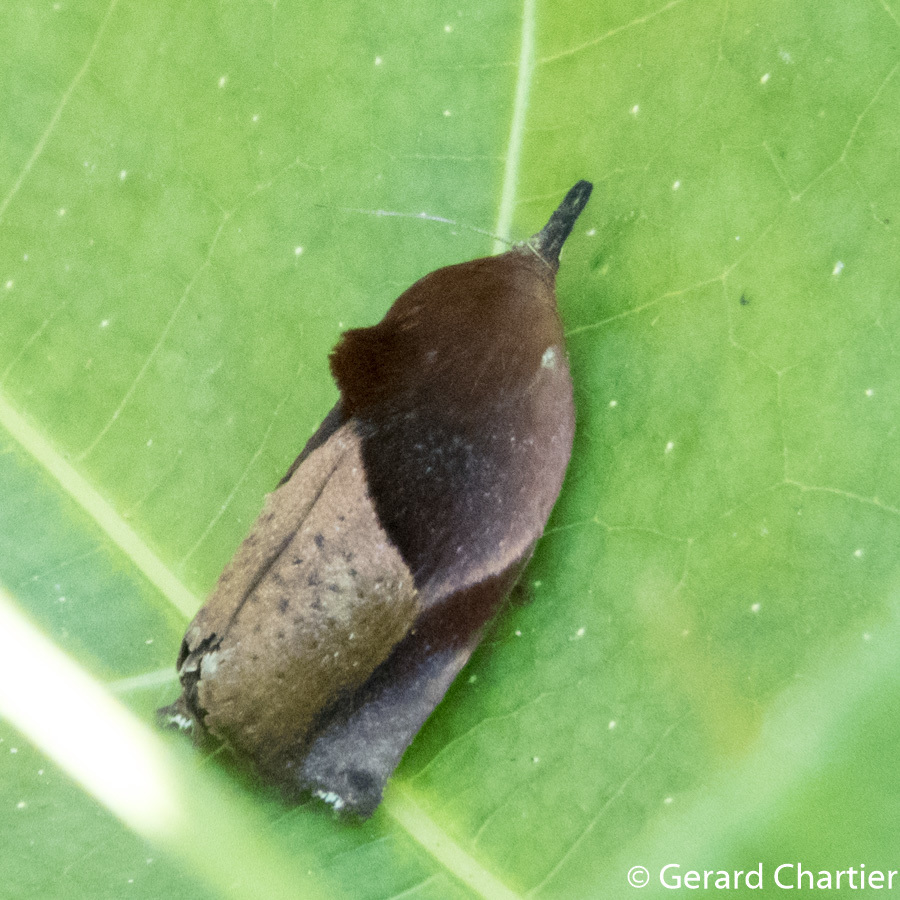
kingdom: Animalia
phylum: Arthropoda
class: Insecta
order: Lepidoptera
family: Hyblaeidae
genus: Hyblaea
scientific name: Hyblaea firmamentum
